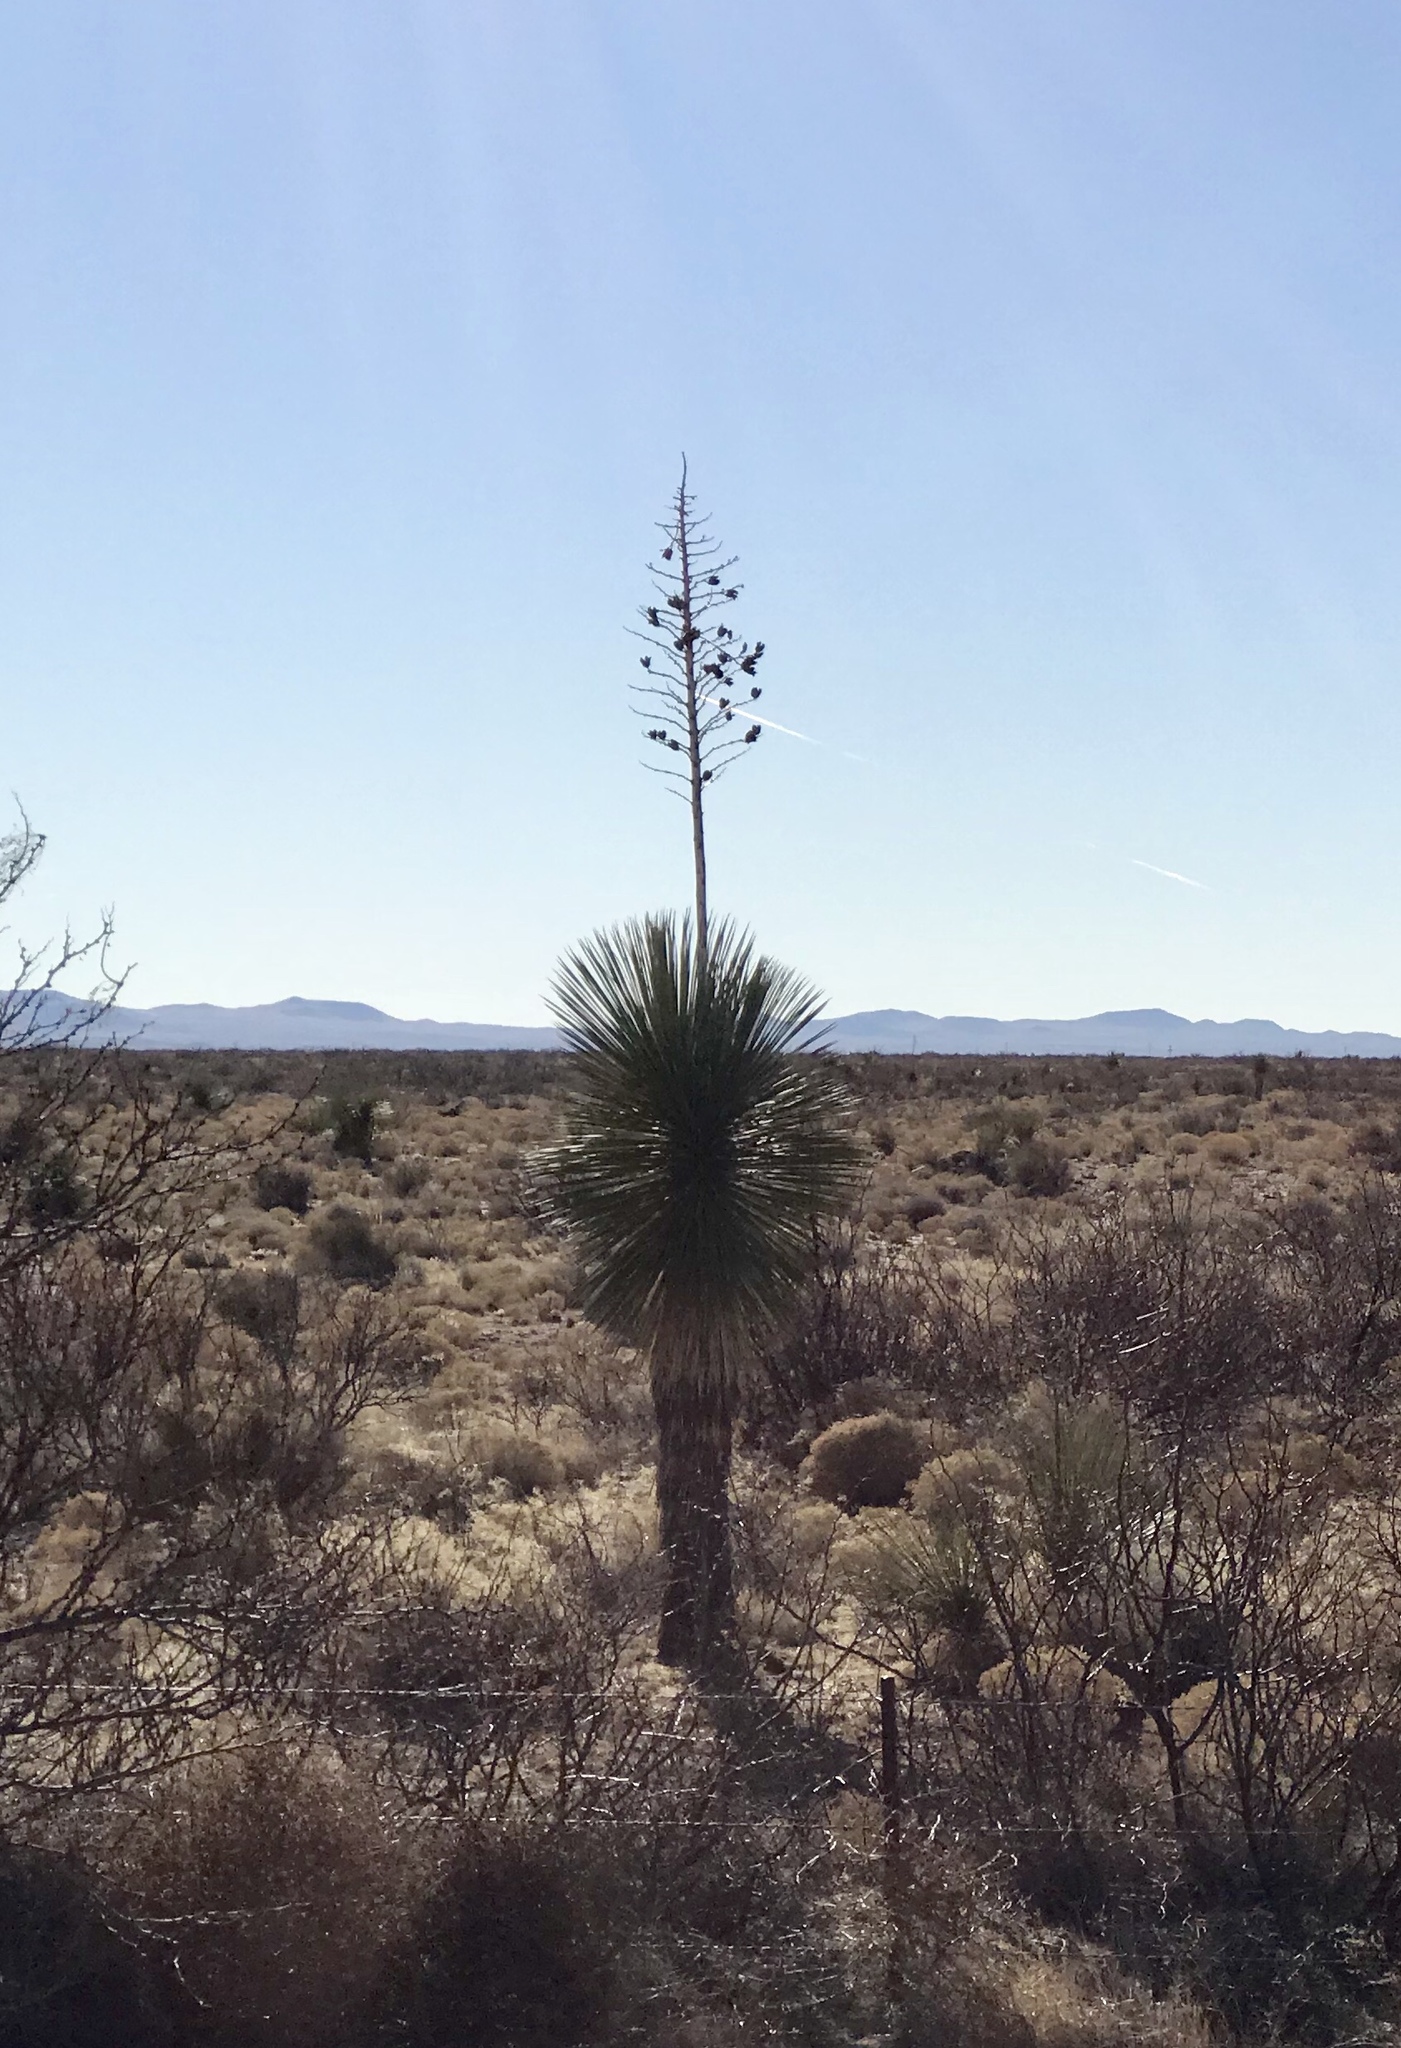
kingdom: Plantae
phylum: Tracheophyta
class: Liliopsida
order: Asparagales
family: Asparagaceae
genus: Yucca
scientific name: Yucca elata
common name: Palmella
